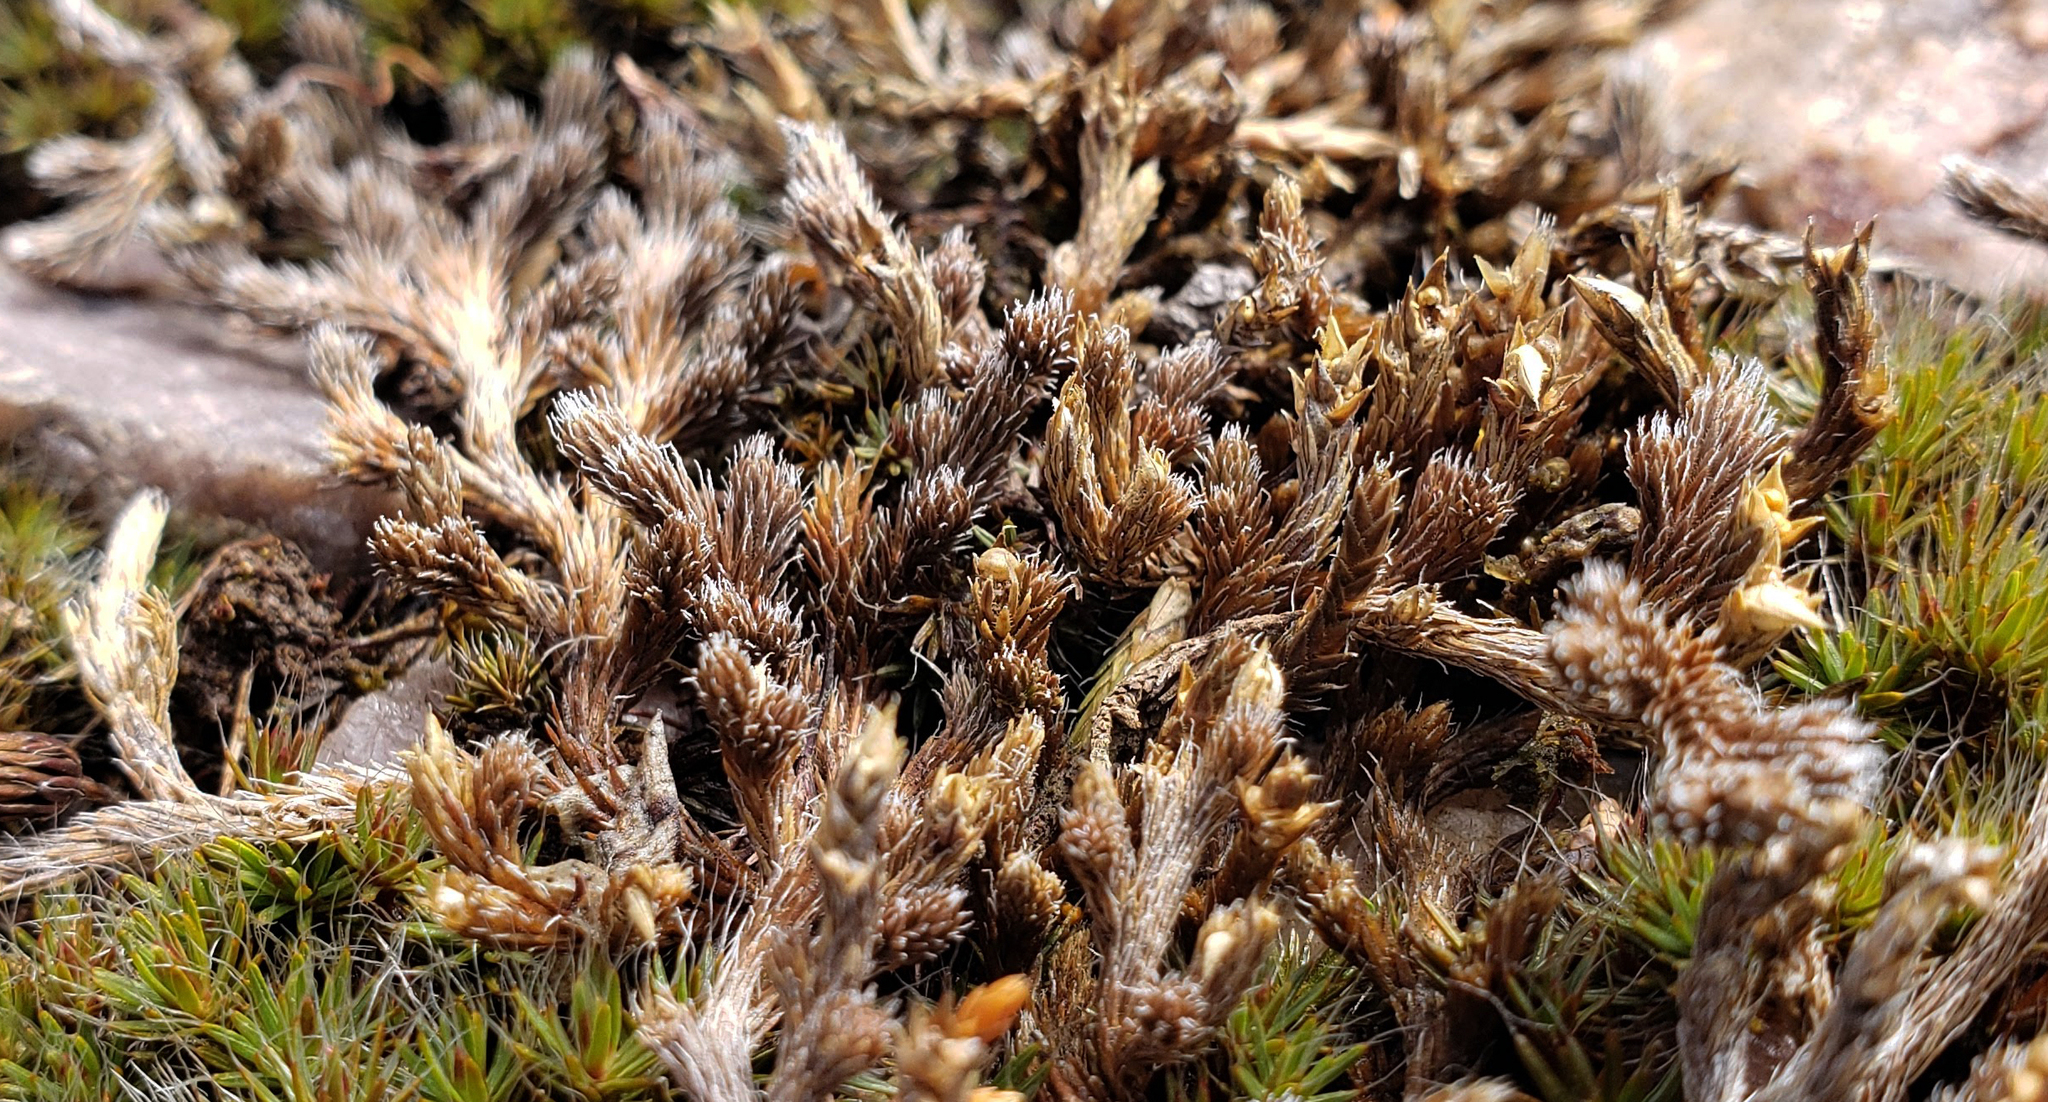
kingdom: Plantae
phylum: Tracheophyta
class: Lycopodiopsida
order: Selaginellales
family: Selaginellaceae
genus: Selaginella
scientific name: Selaginella rupestris
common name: Dwarf spikemoss
